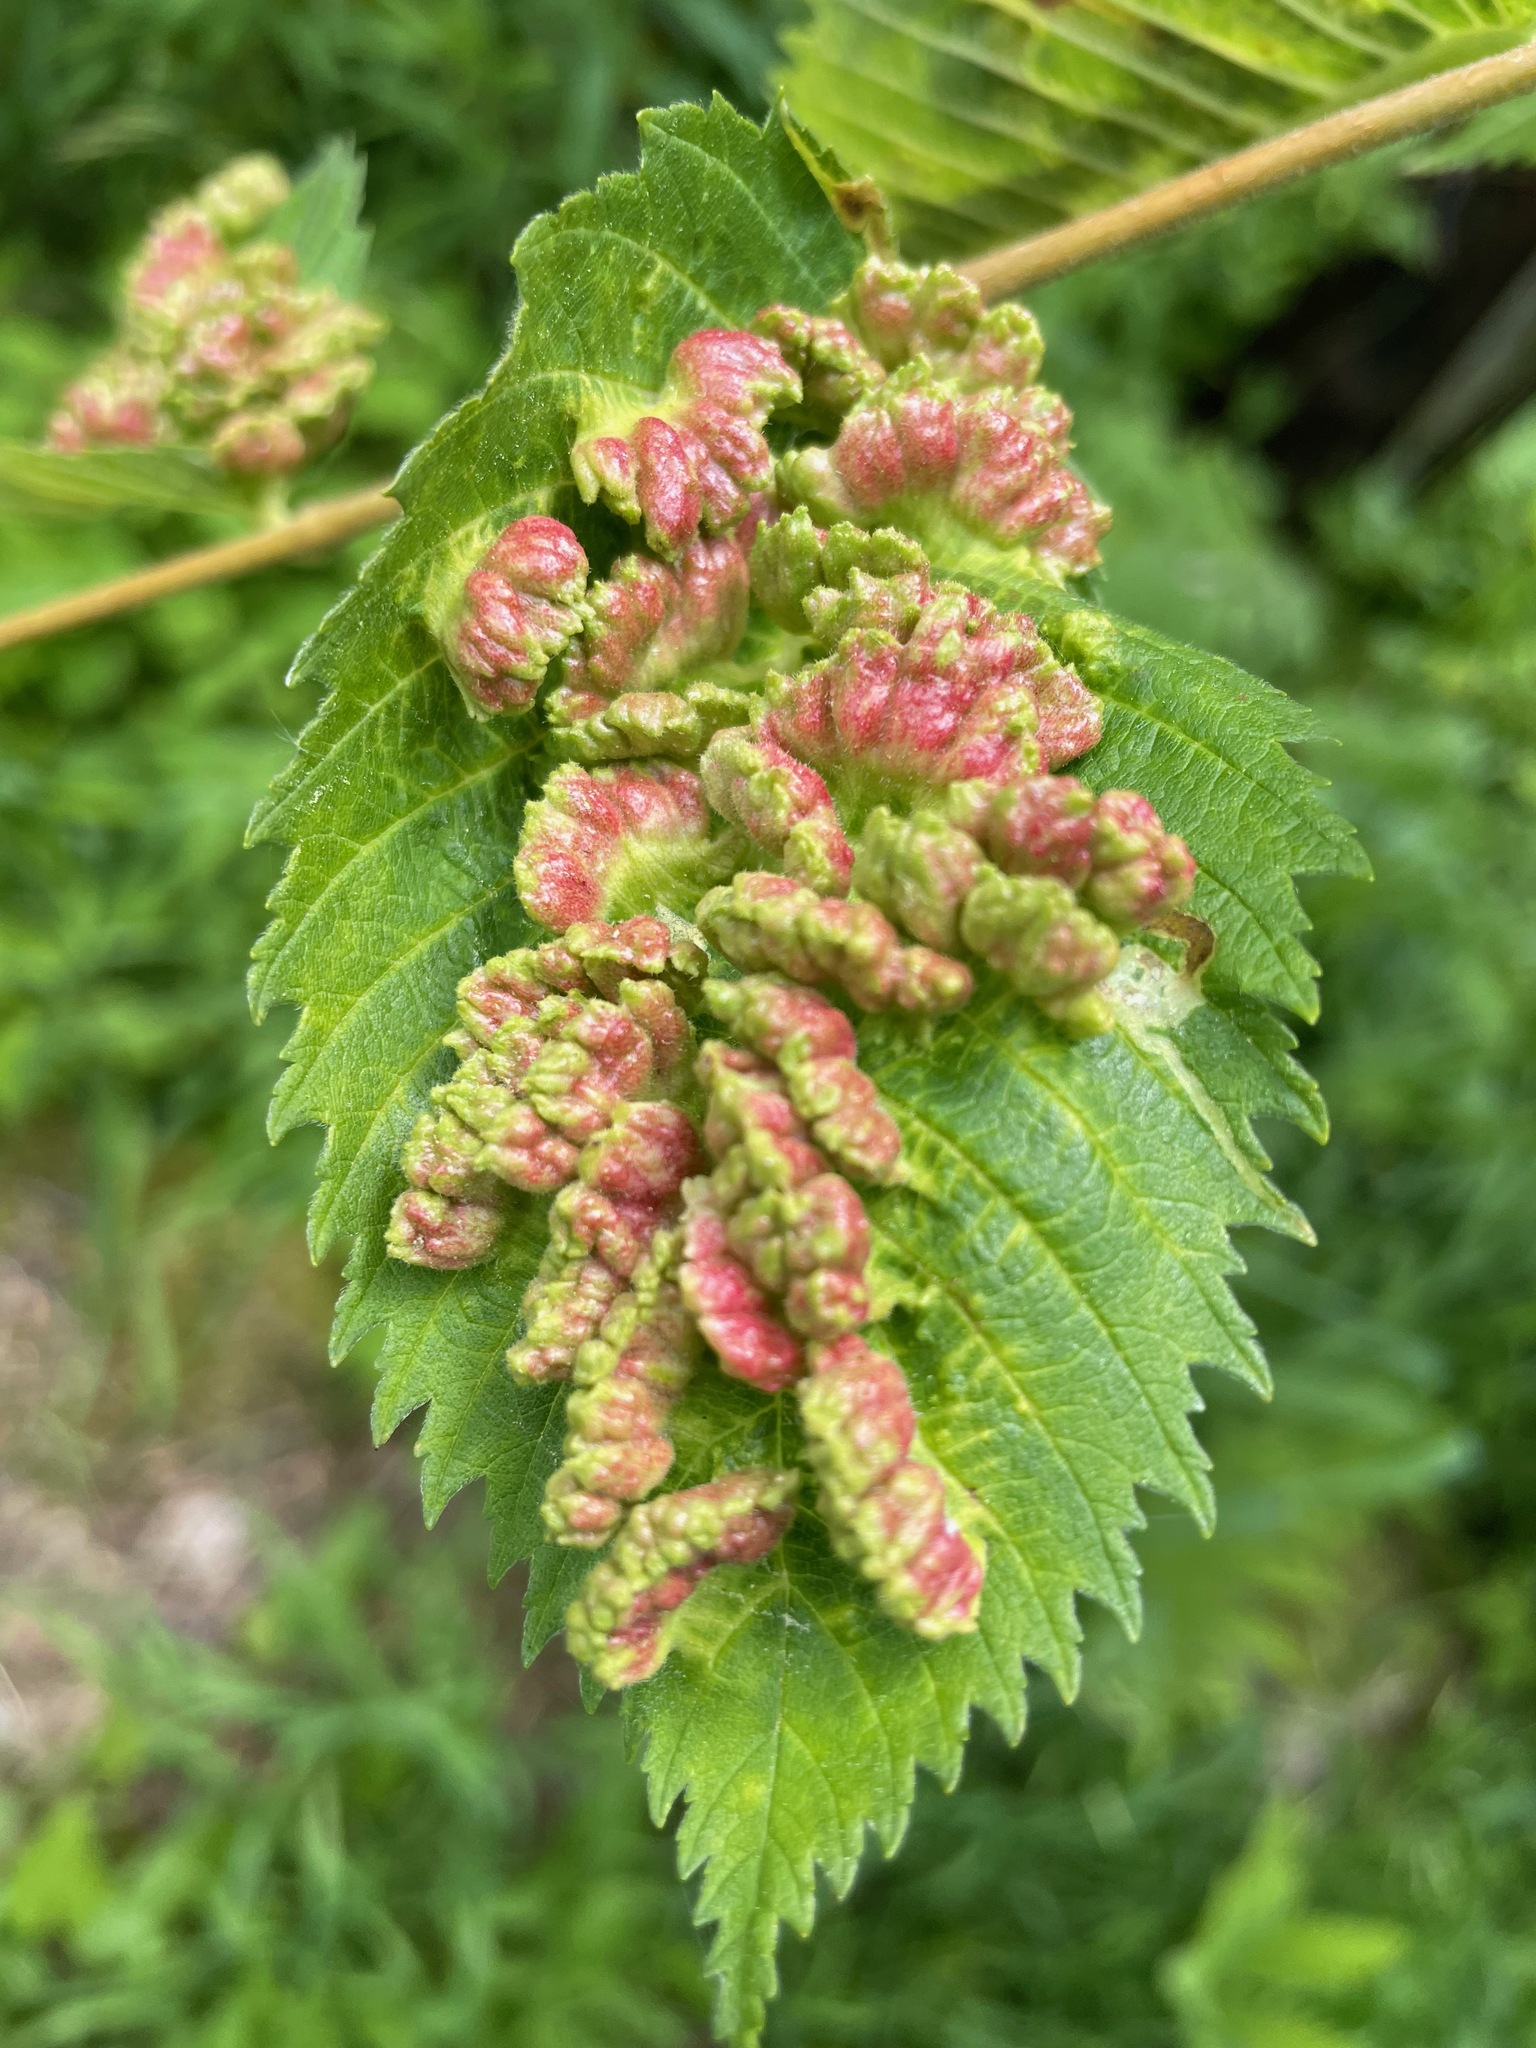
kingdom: Animalia
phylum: Arthropoda
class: Insecta
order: Hemiptera
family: Aphididae
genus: Colopha
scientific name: Colopha ulmicola
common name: Elm cockscombgall aphid
